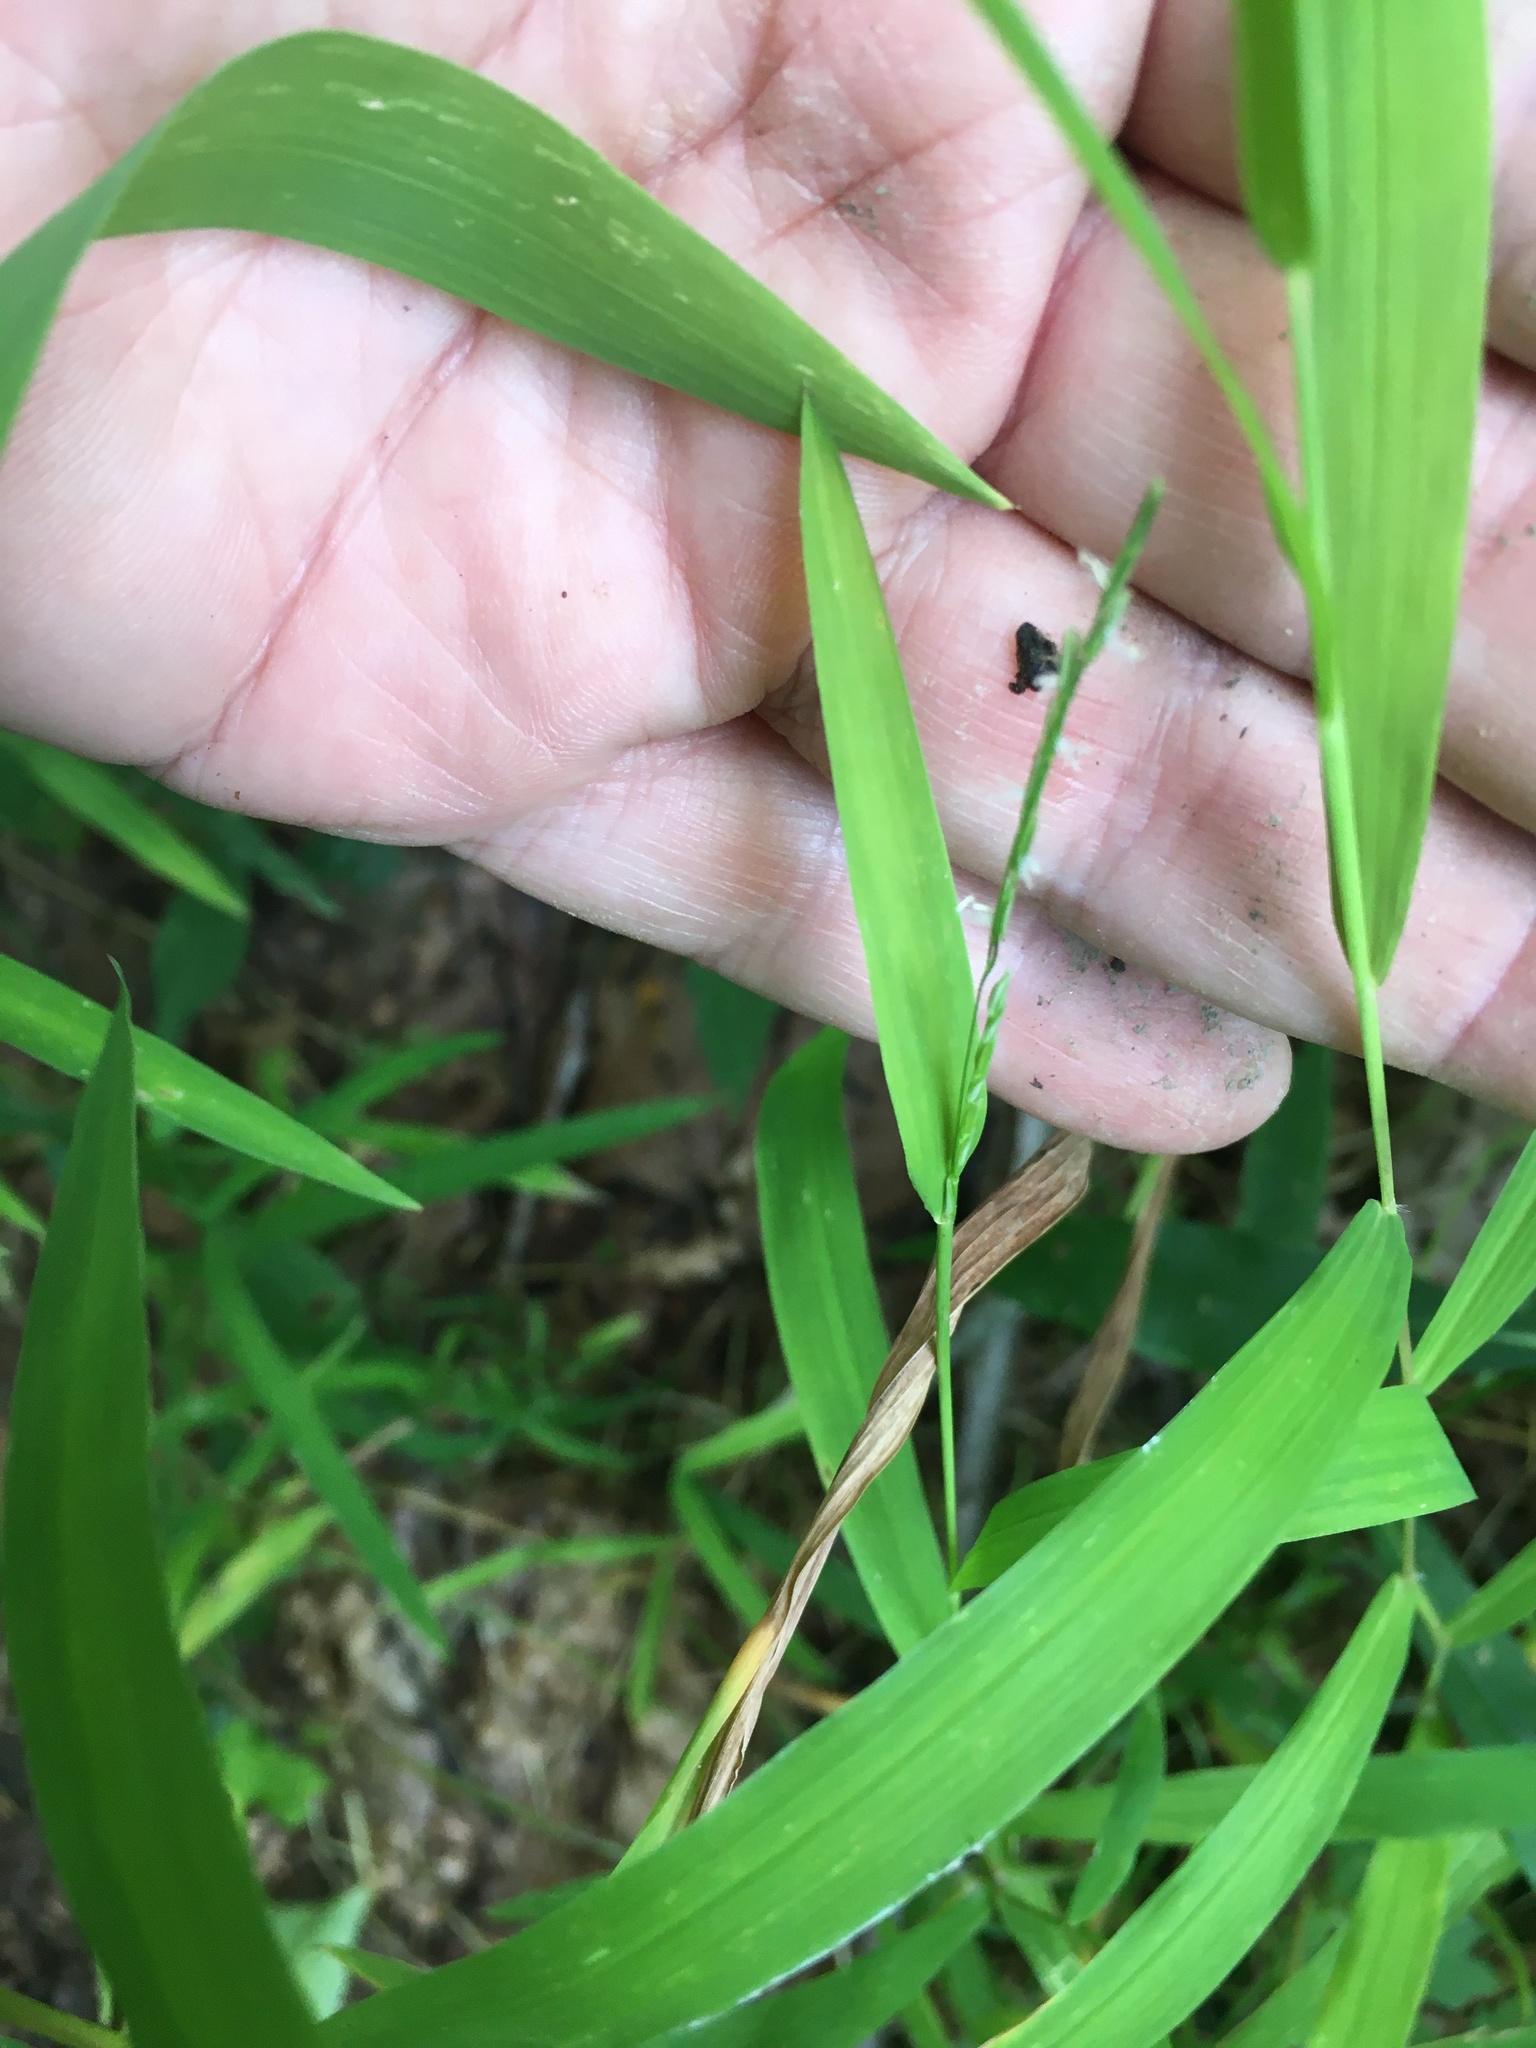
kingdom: Plantae
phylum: Tracheophyta
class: Liliopsida
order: Poales
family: Poaceae
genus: Leersia
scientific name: Leersia virginica
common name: White cutgrass
